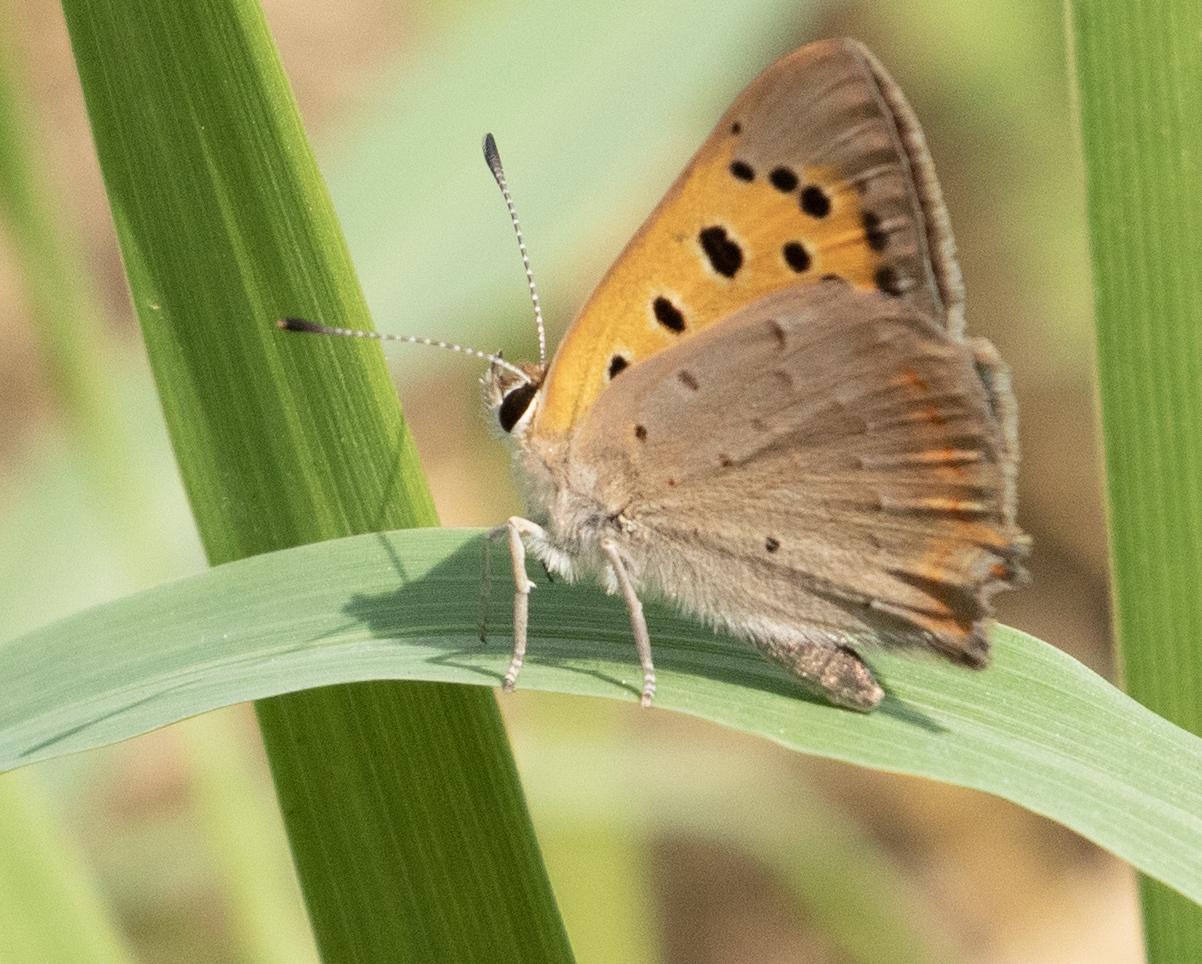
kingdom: Animalia
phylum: Arthropoda
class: Insecta
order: Lepidoptera
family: Lycaenidae
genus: Lycaena
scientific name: Lycaena phlaeas
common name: Small copper
